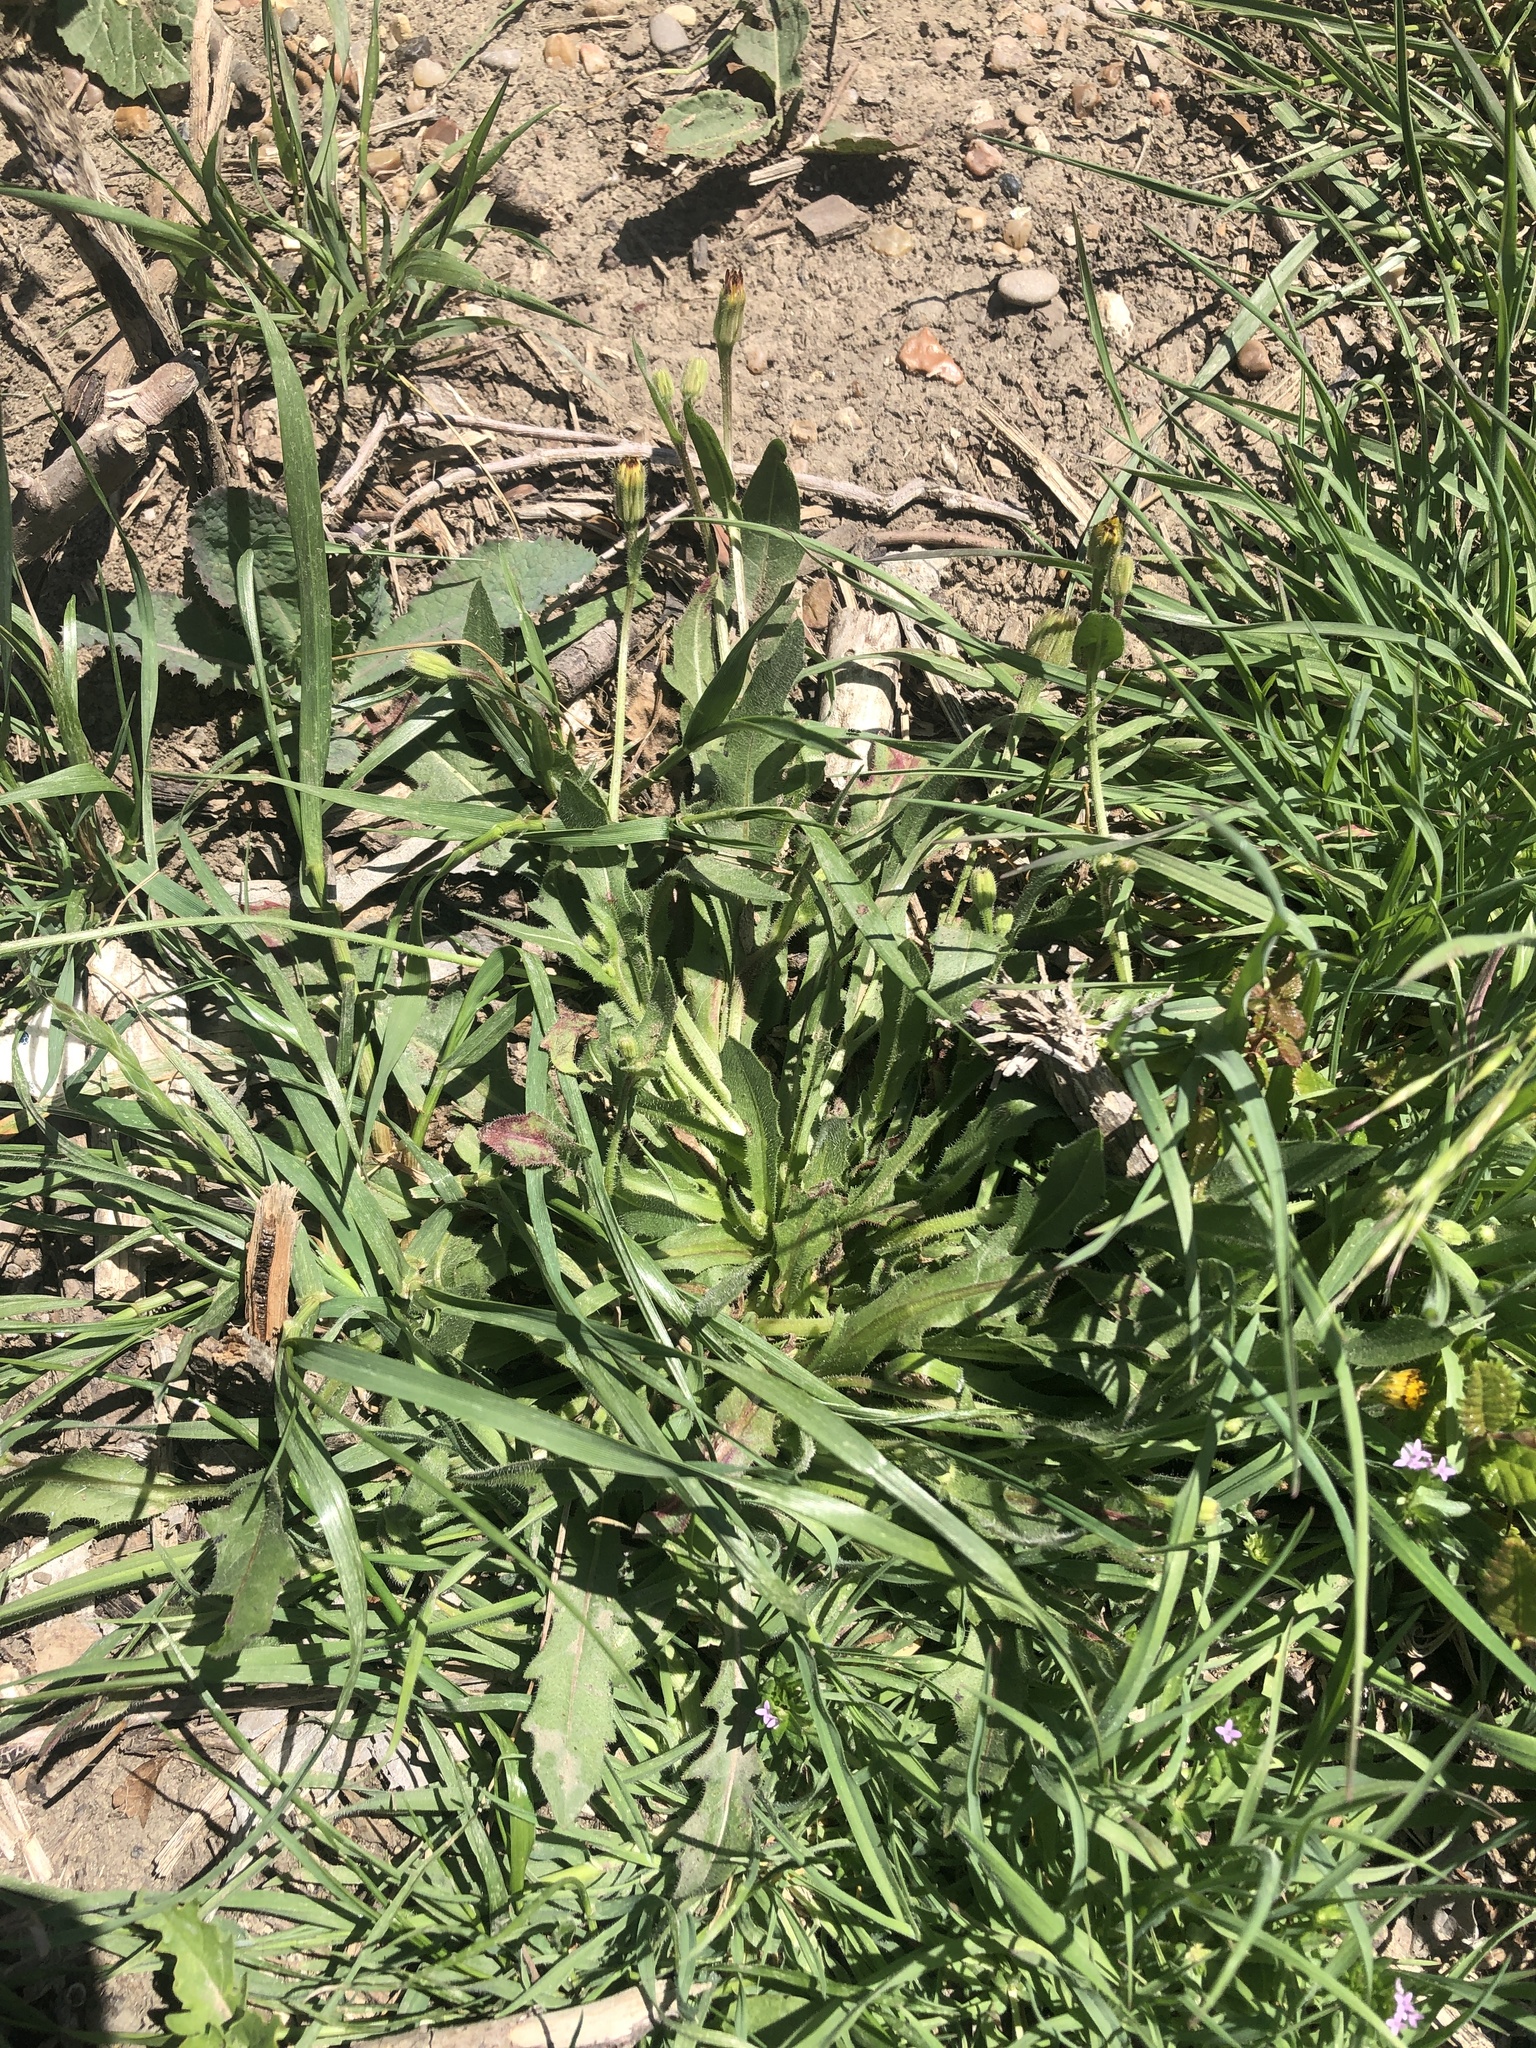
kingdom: Plantae
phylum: Tracheophyta
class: Magnoliopsida
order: Asterales
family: Asteraceae
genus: Hedypnois
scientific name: Hedypnois rhagadioloides
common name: Cretan weed
